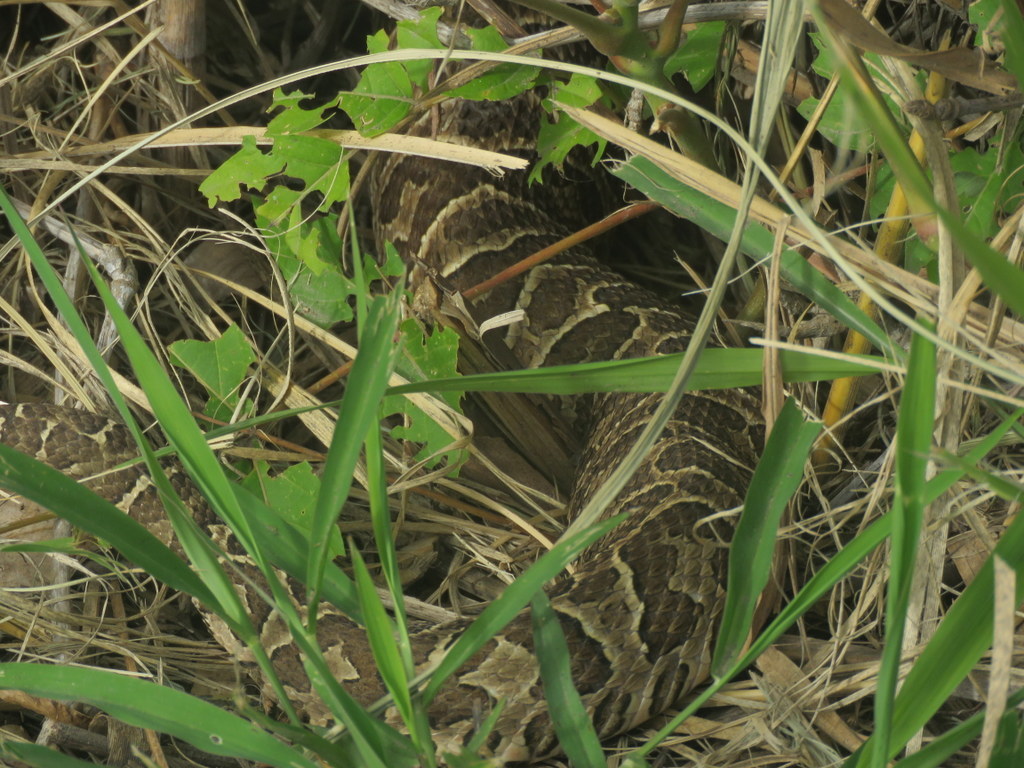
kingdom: Animalia
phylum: Chordata
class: Squamata
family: Viperidae
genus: Bothrops
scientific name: Bothrops alternatus
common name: Urutu
